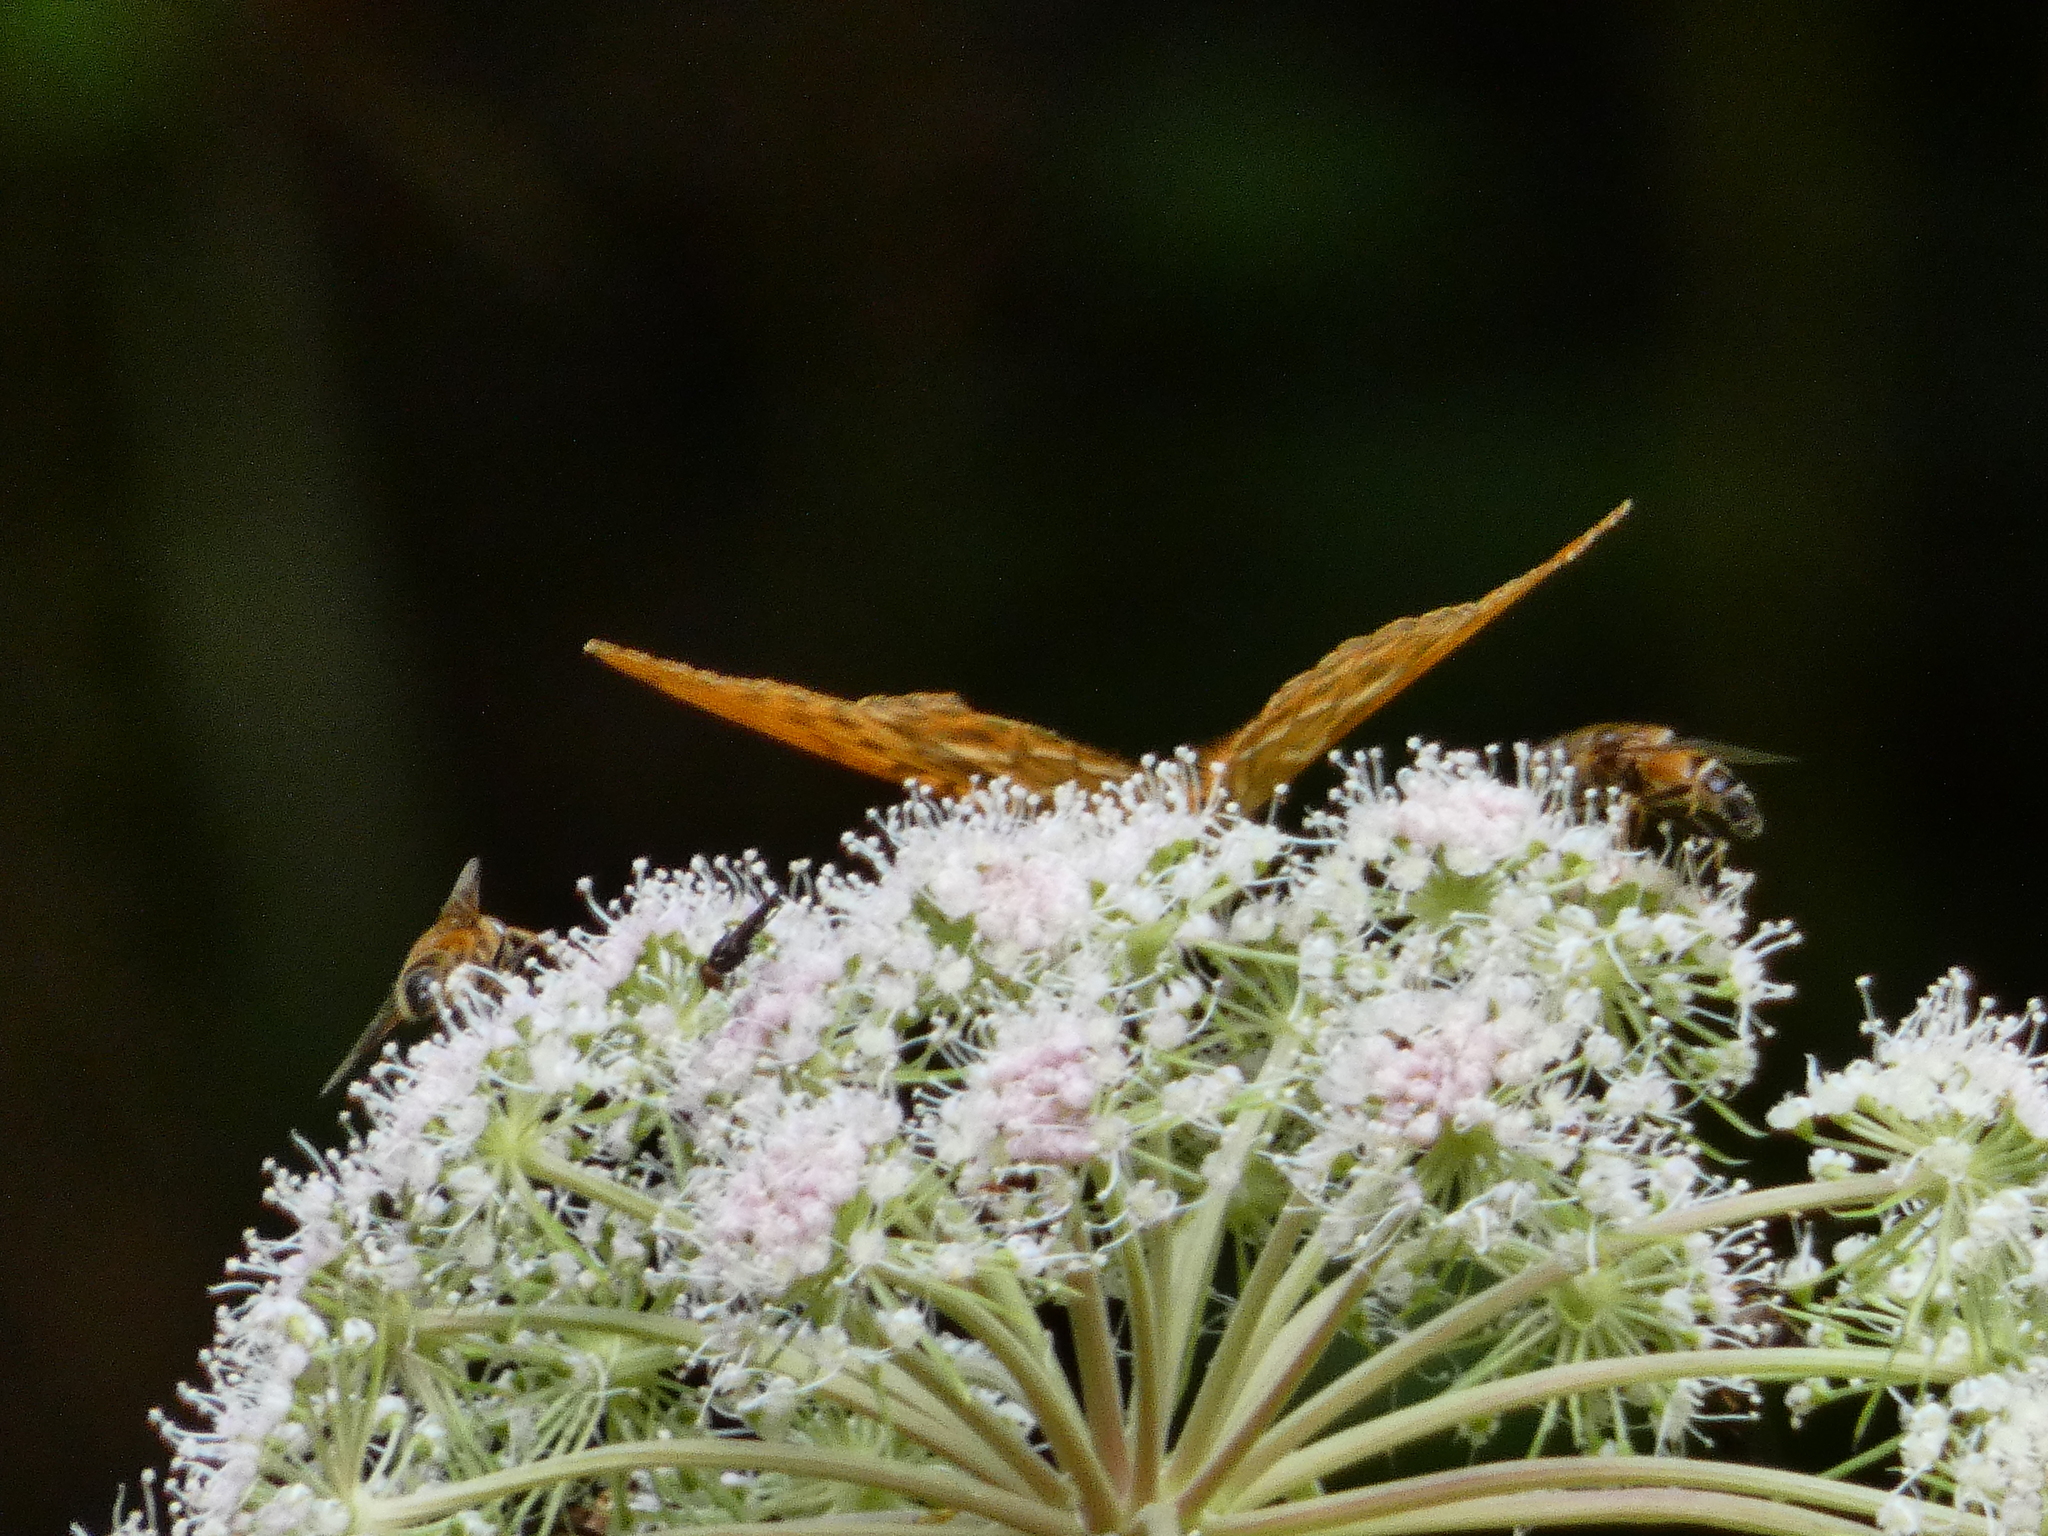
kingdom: Animalia
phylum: Arthropoda
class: Insecta
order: Lepidoptera
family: Nymphalidae
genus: Argynnis
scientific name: Argynnis paphia
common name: Silver-washed fritillary
